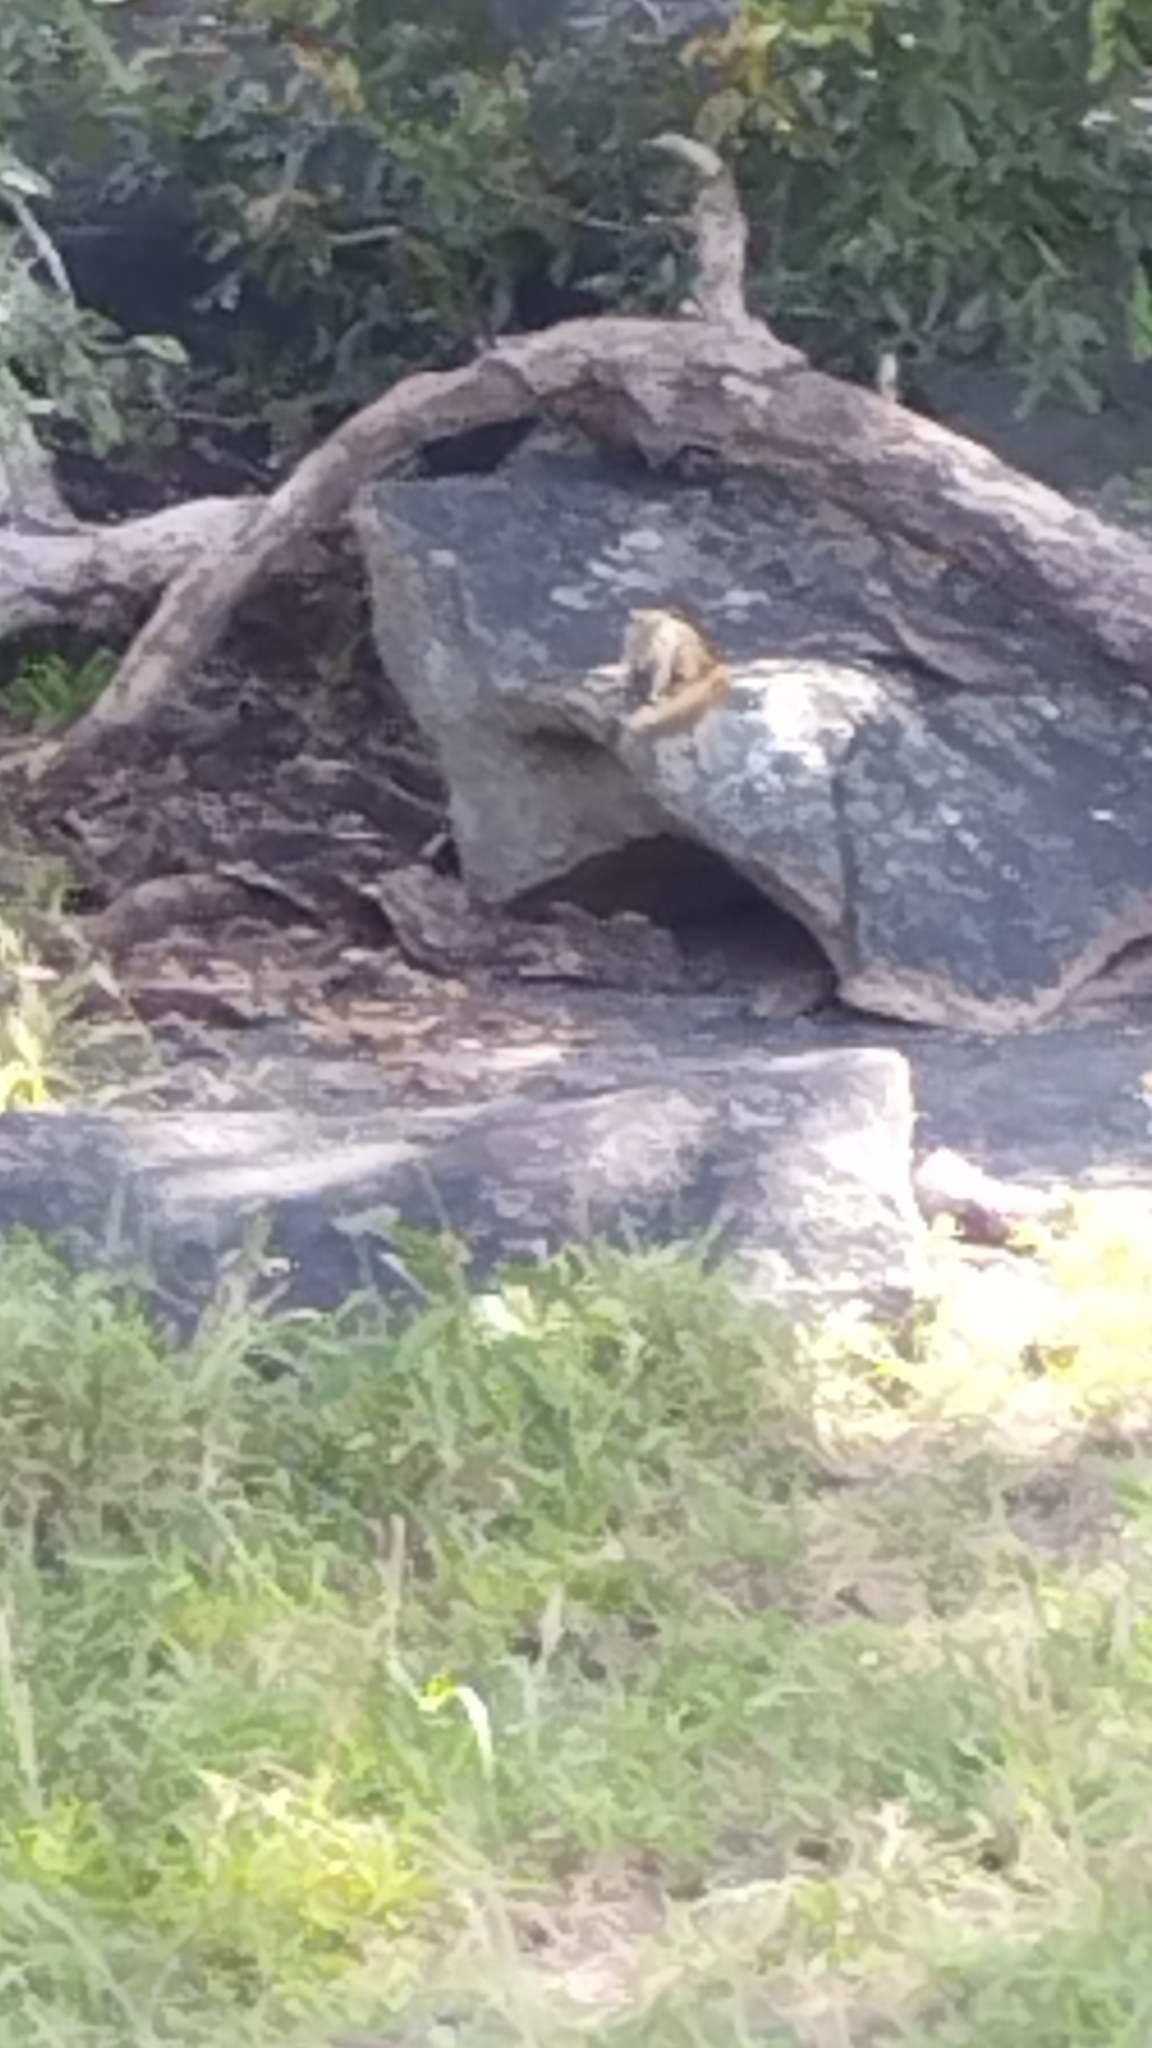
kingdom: Animalia
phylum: Chordata
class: Mammalia
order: Rodentia
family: Sciuridae
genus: Paraxerus
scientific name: Paraxerus cepapi
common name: Smith's bush squirrel
